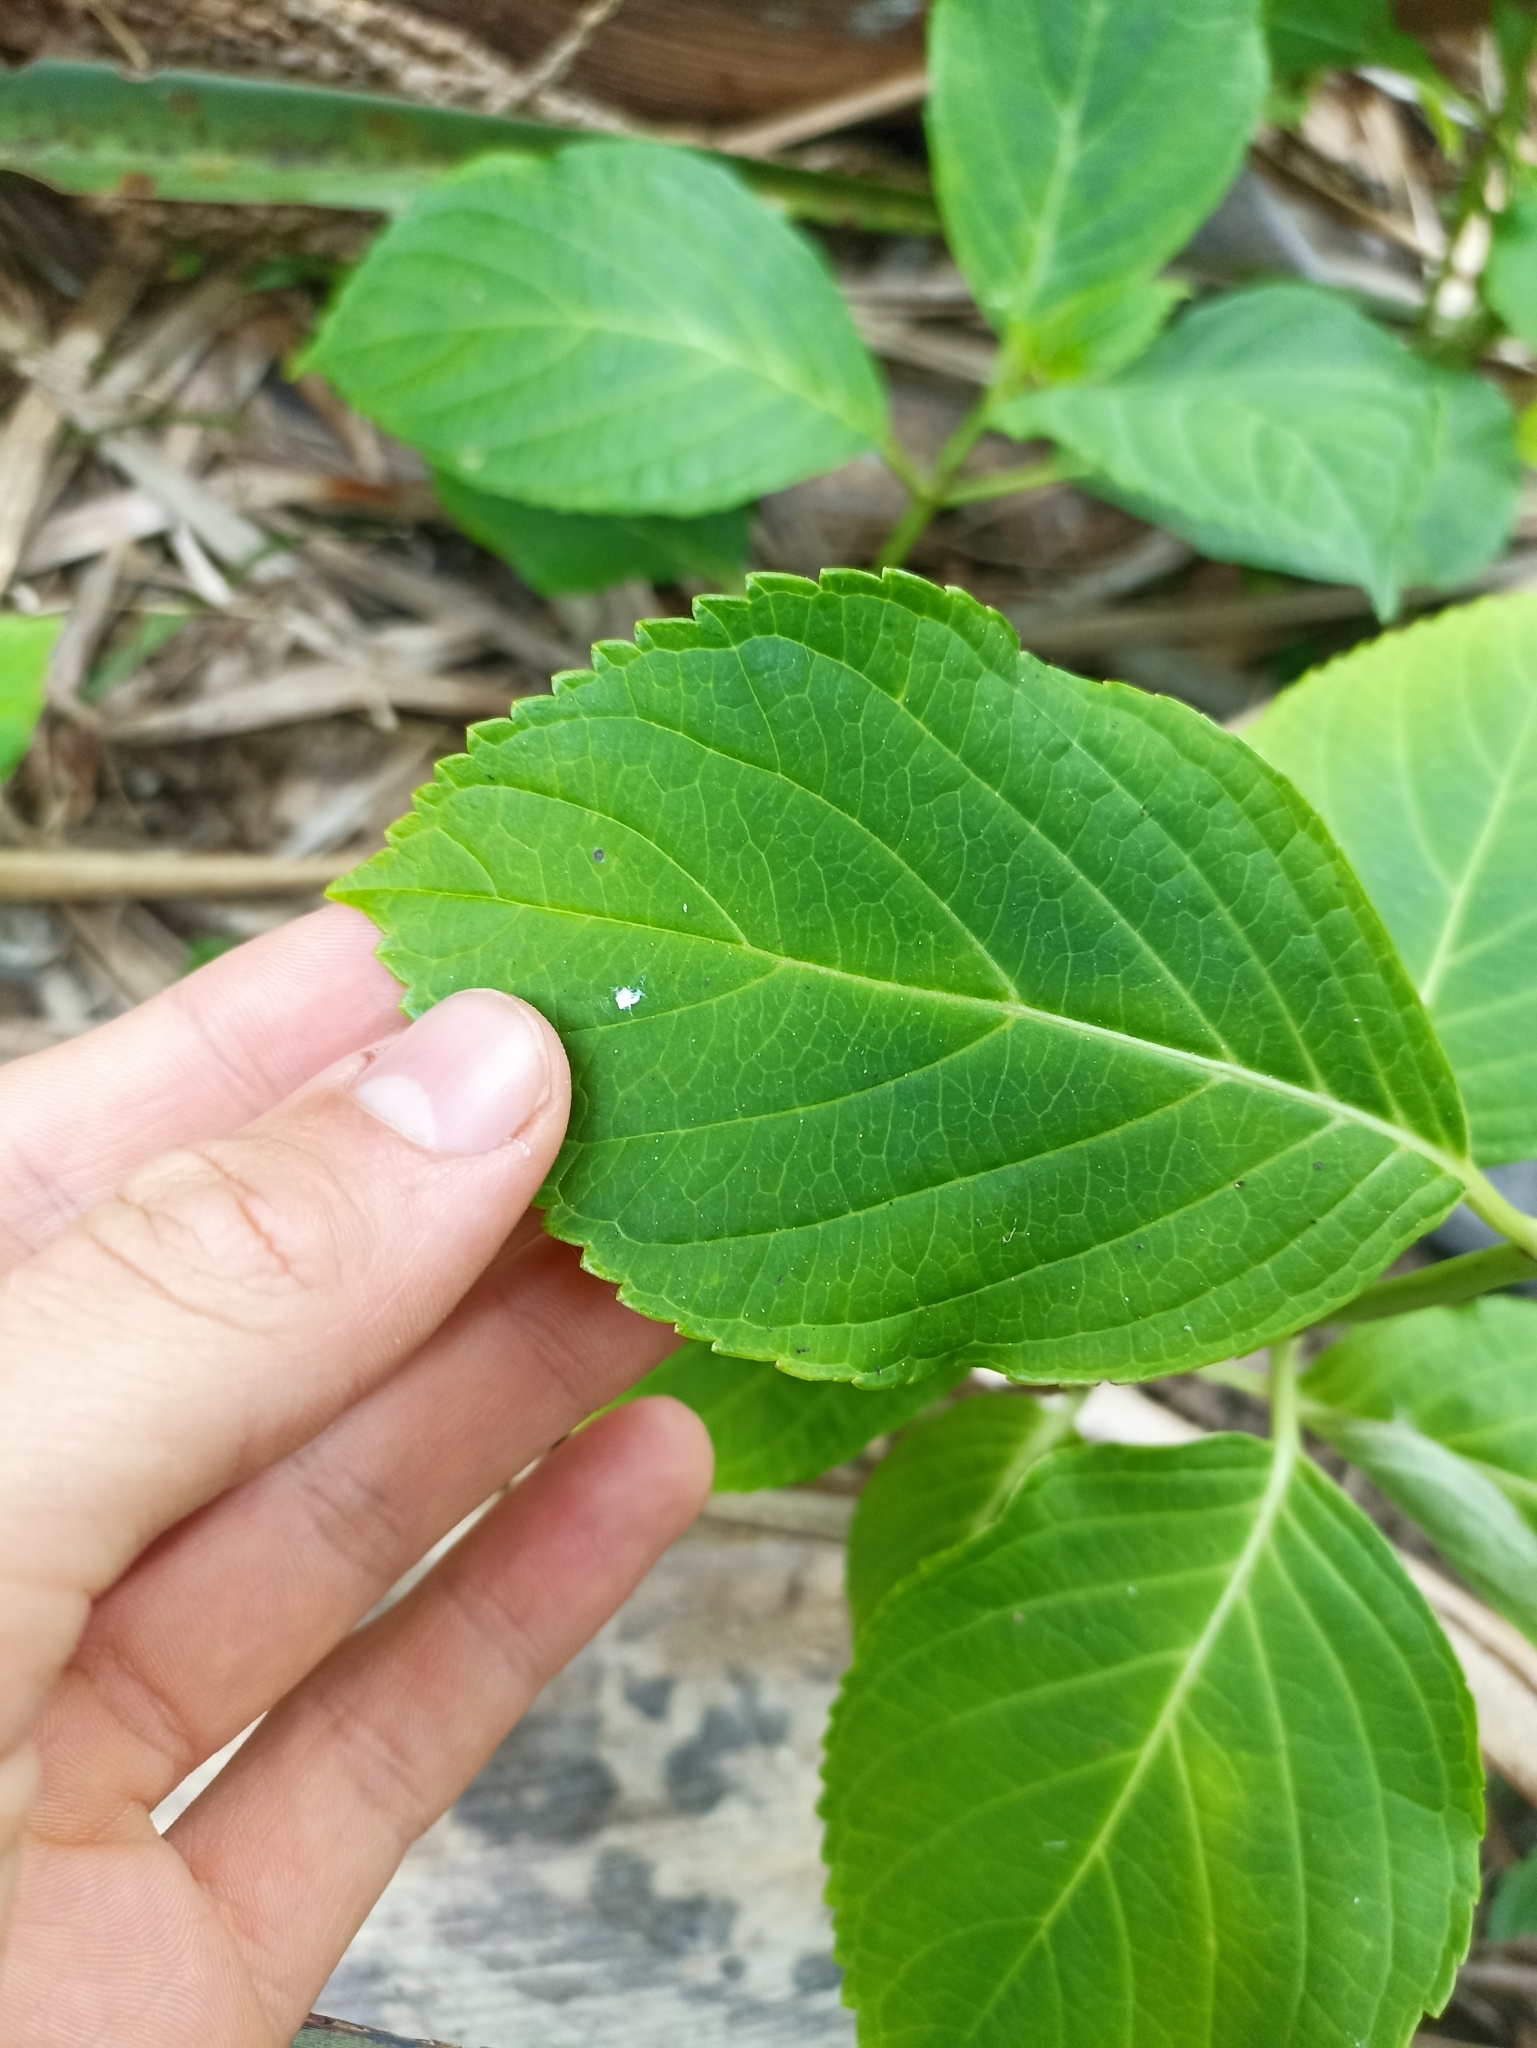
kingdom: Plantae
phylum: Tracheophyta
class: Magnoliopsida
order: Cornales
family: Hydrangeaceae
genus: Hydrangea
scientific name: Hydrangea macrophylla
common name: Hydrangea
